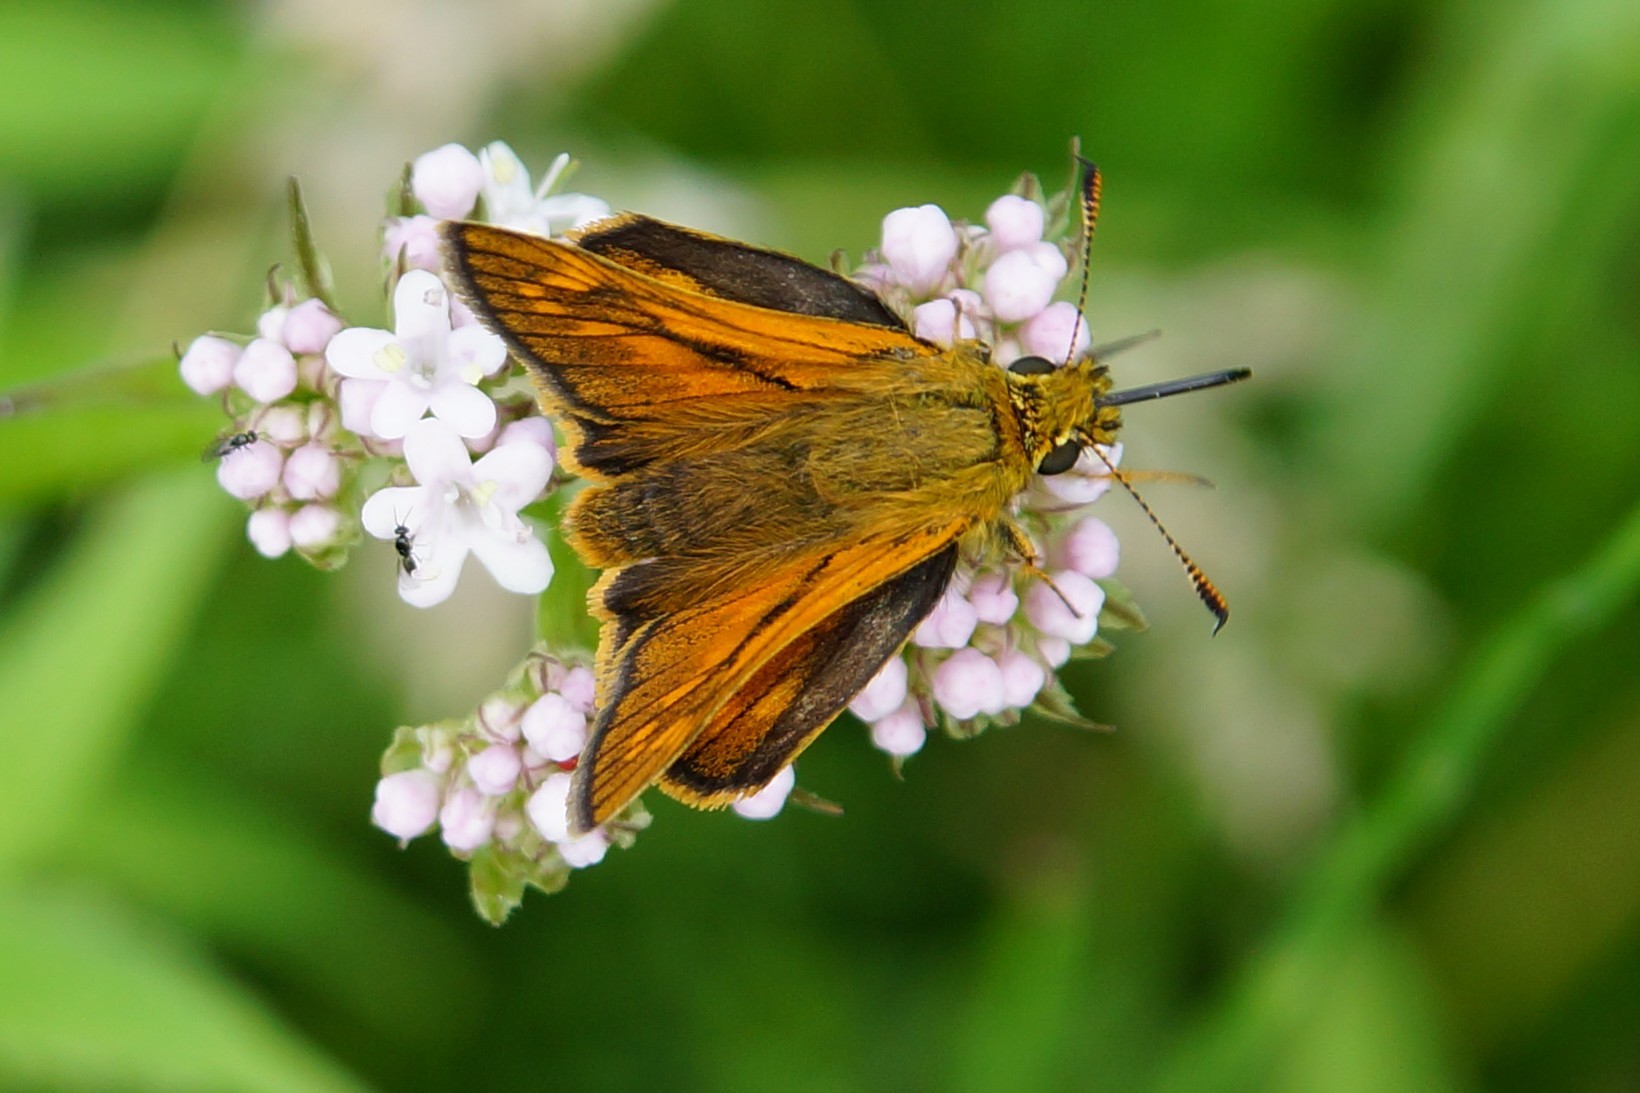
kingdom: Animalia
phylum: Arthropoda
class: Insecta
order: Lepidoptera
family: Hesperiidae
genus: Ochlodes
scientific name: Ochlodes venata
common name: Large skipper
